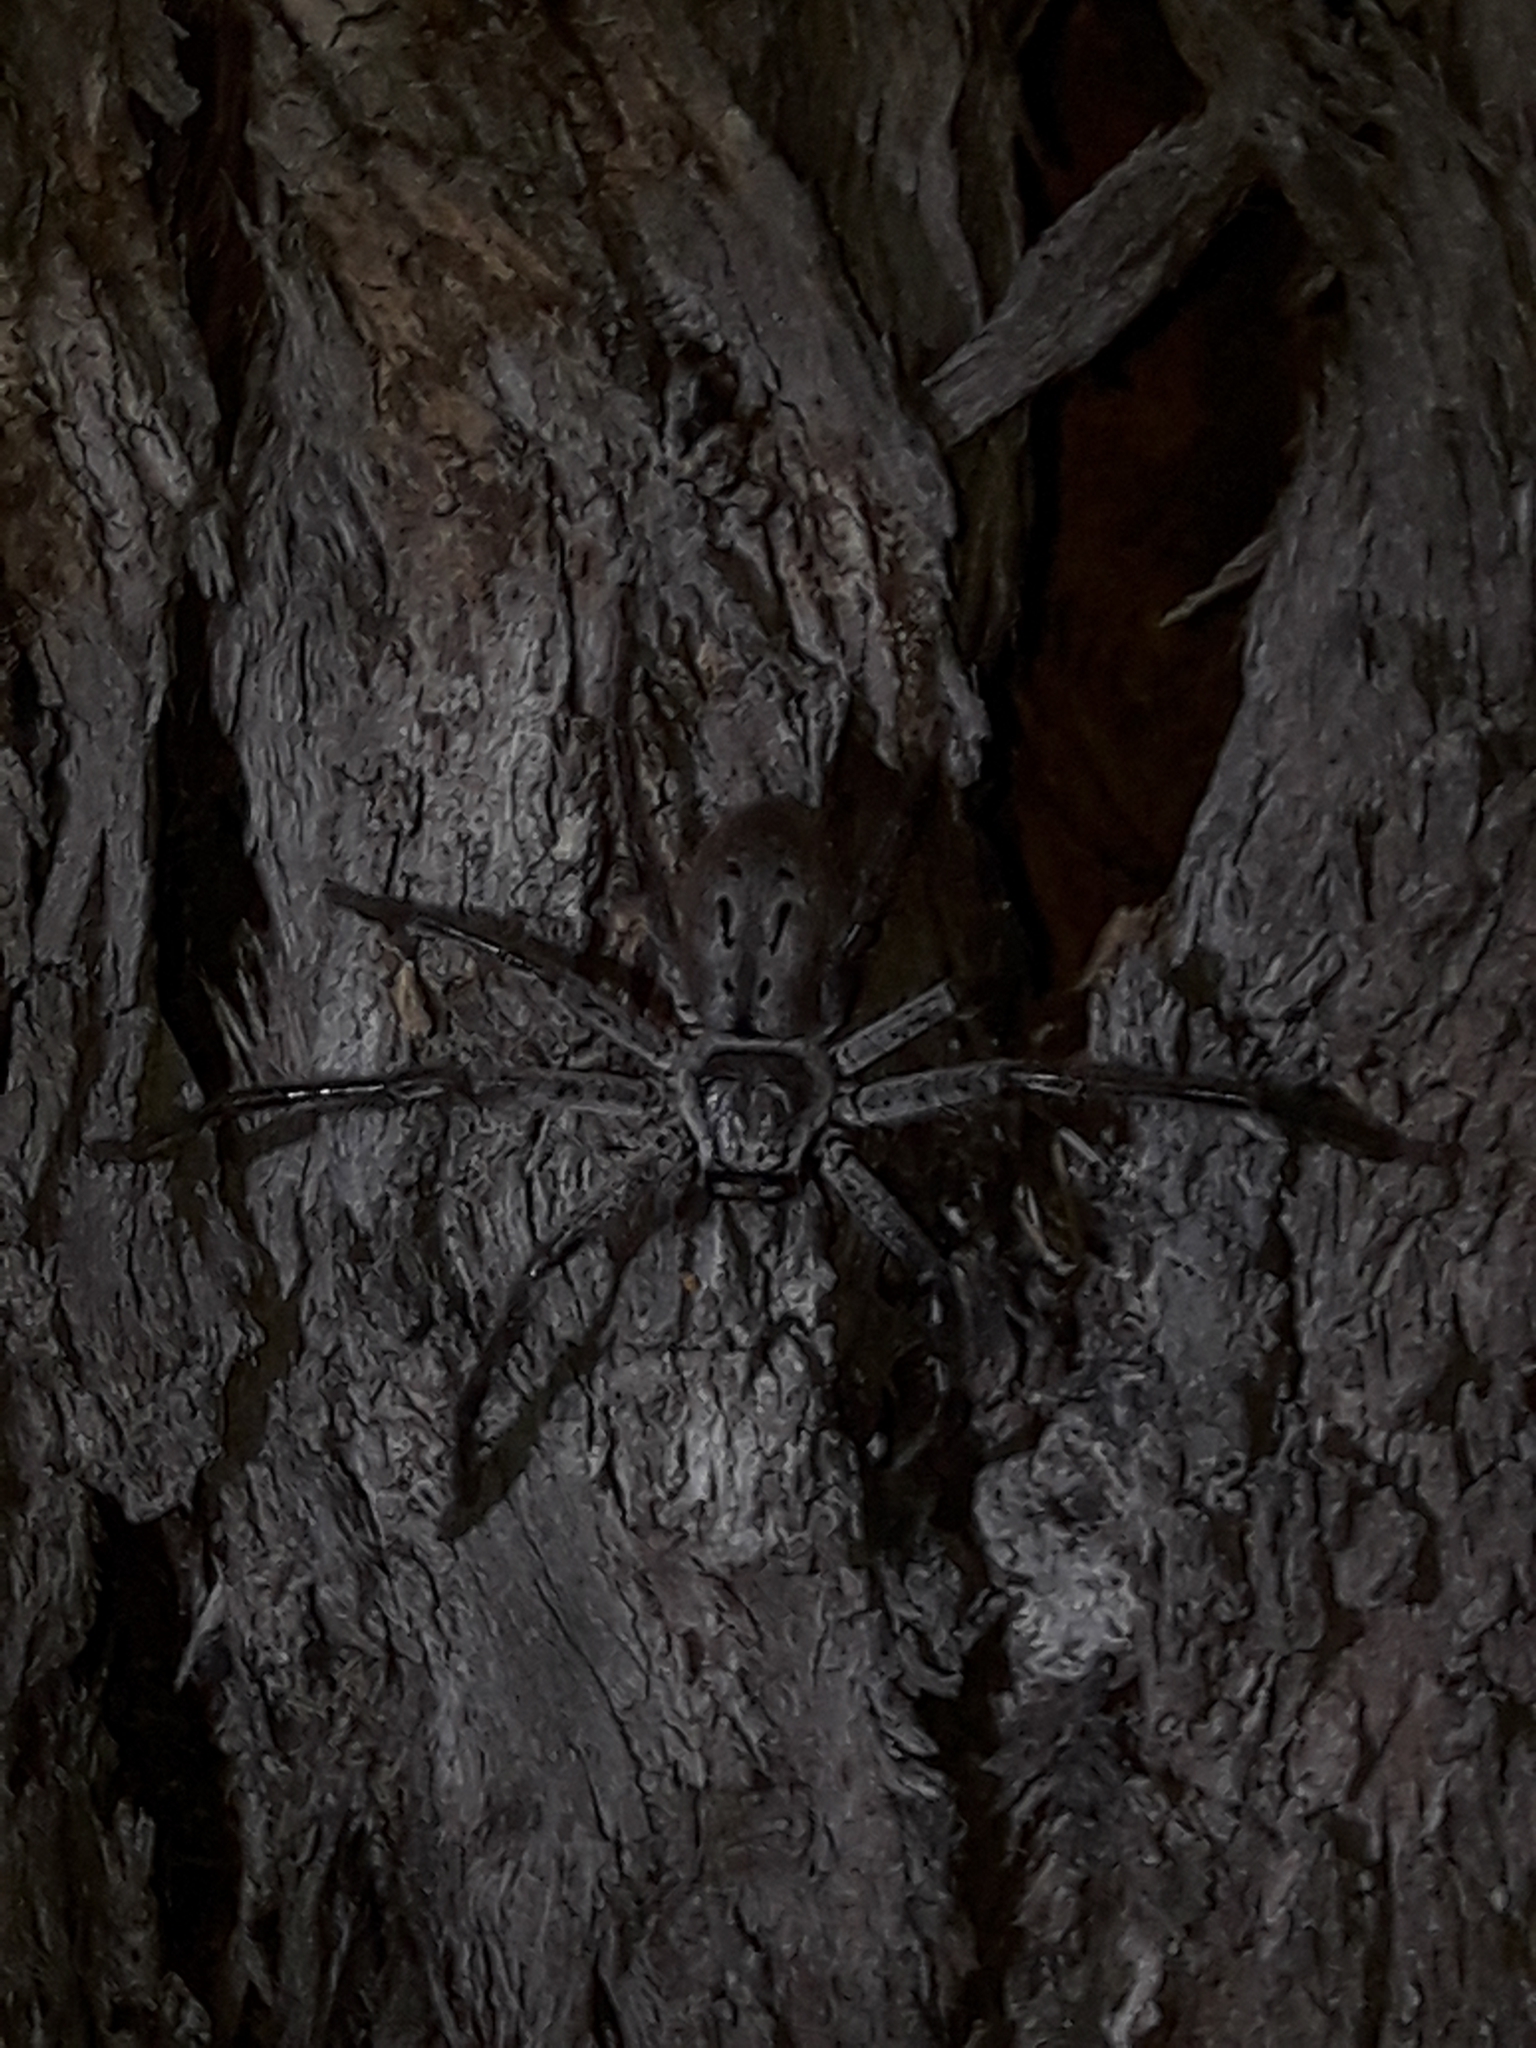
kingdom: Animalia
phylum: Arthropoda
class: Arachnida
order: Araneae
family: Sparassidae
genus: Isopeda
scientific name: Isopeda montana
